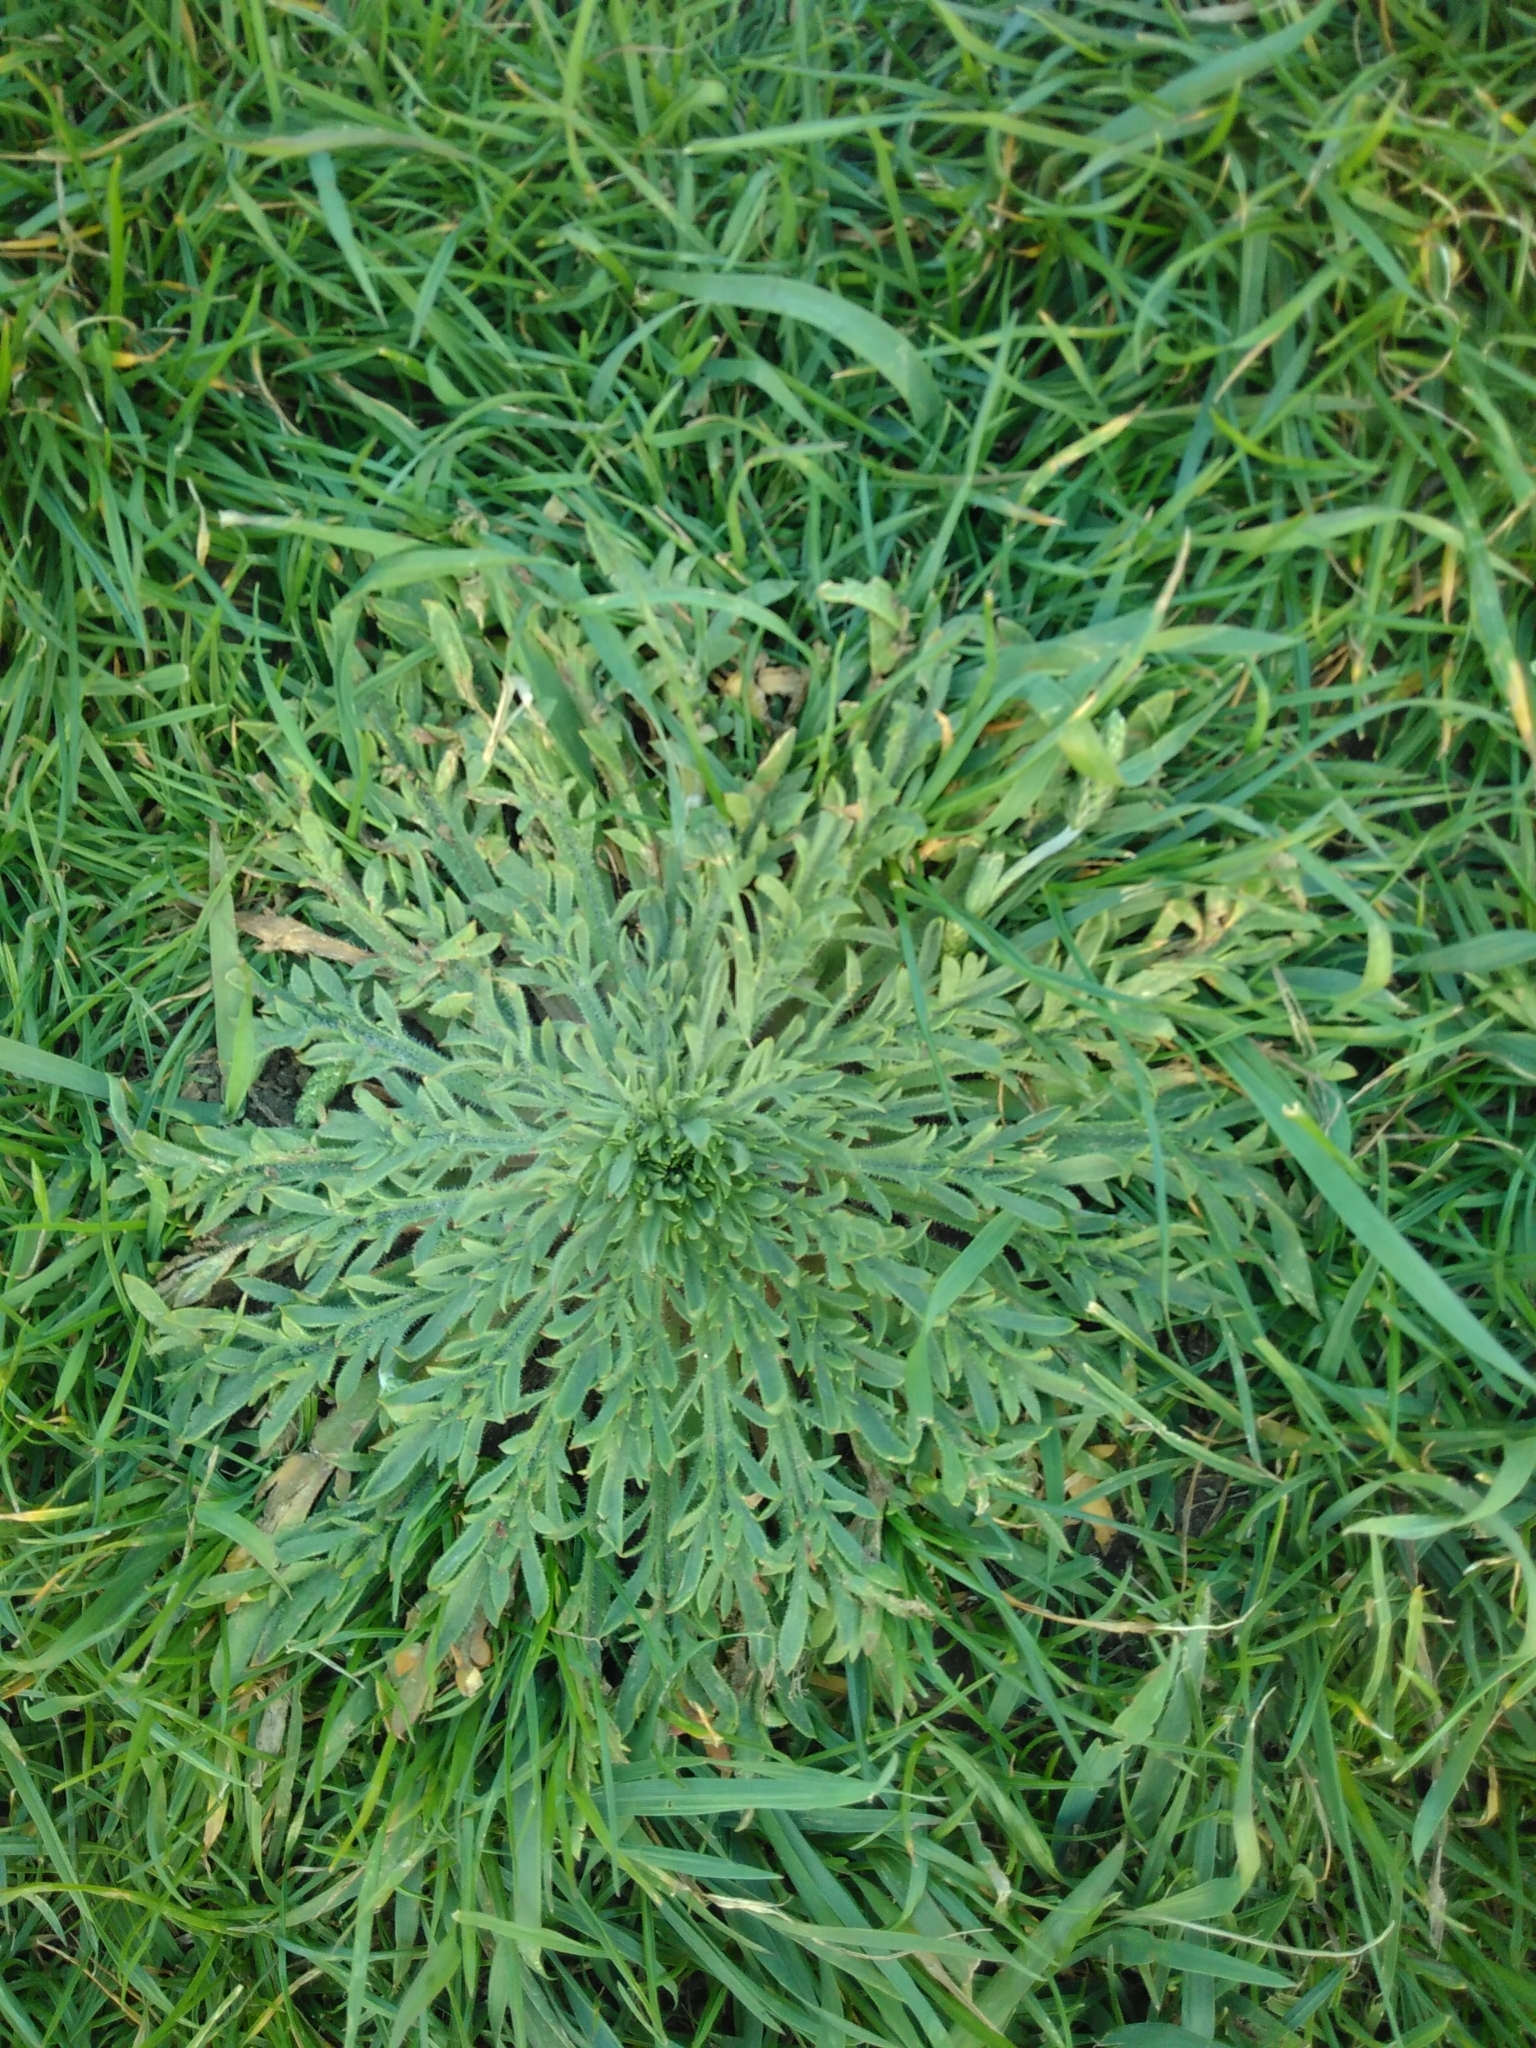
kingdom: Plantae
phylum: Tracheophyta
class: Magnoliopsida
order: Lamiales
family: Plantaginaceae
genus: Plantago
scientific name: Plantago coronopus
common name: Buck's-horn plantain
